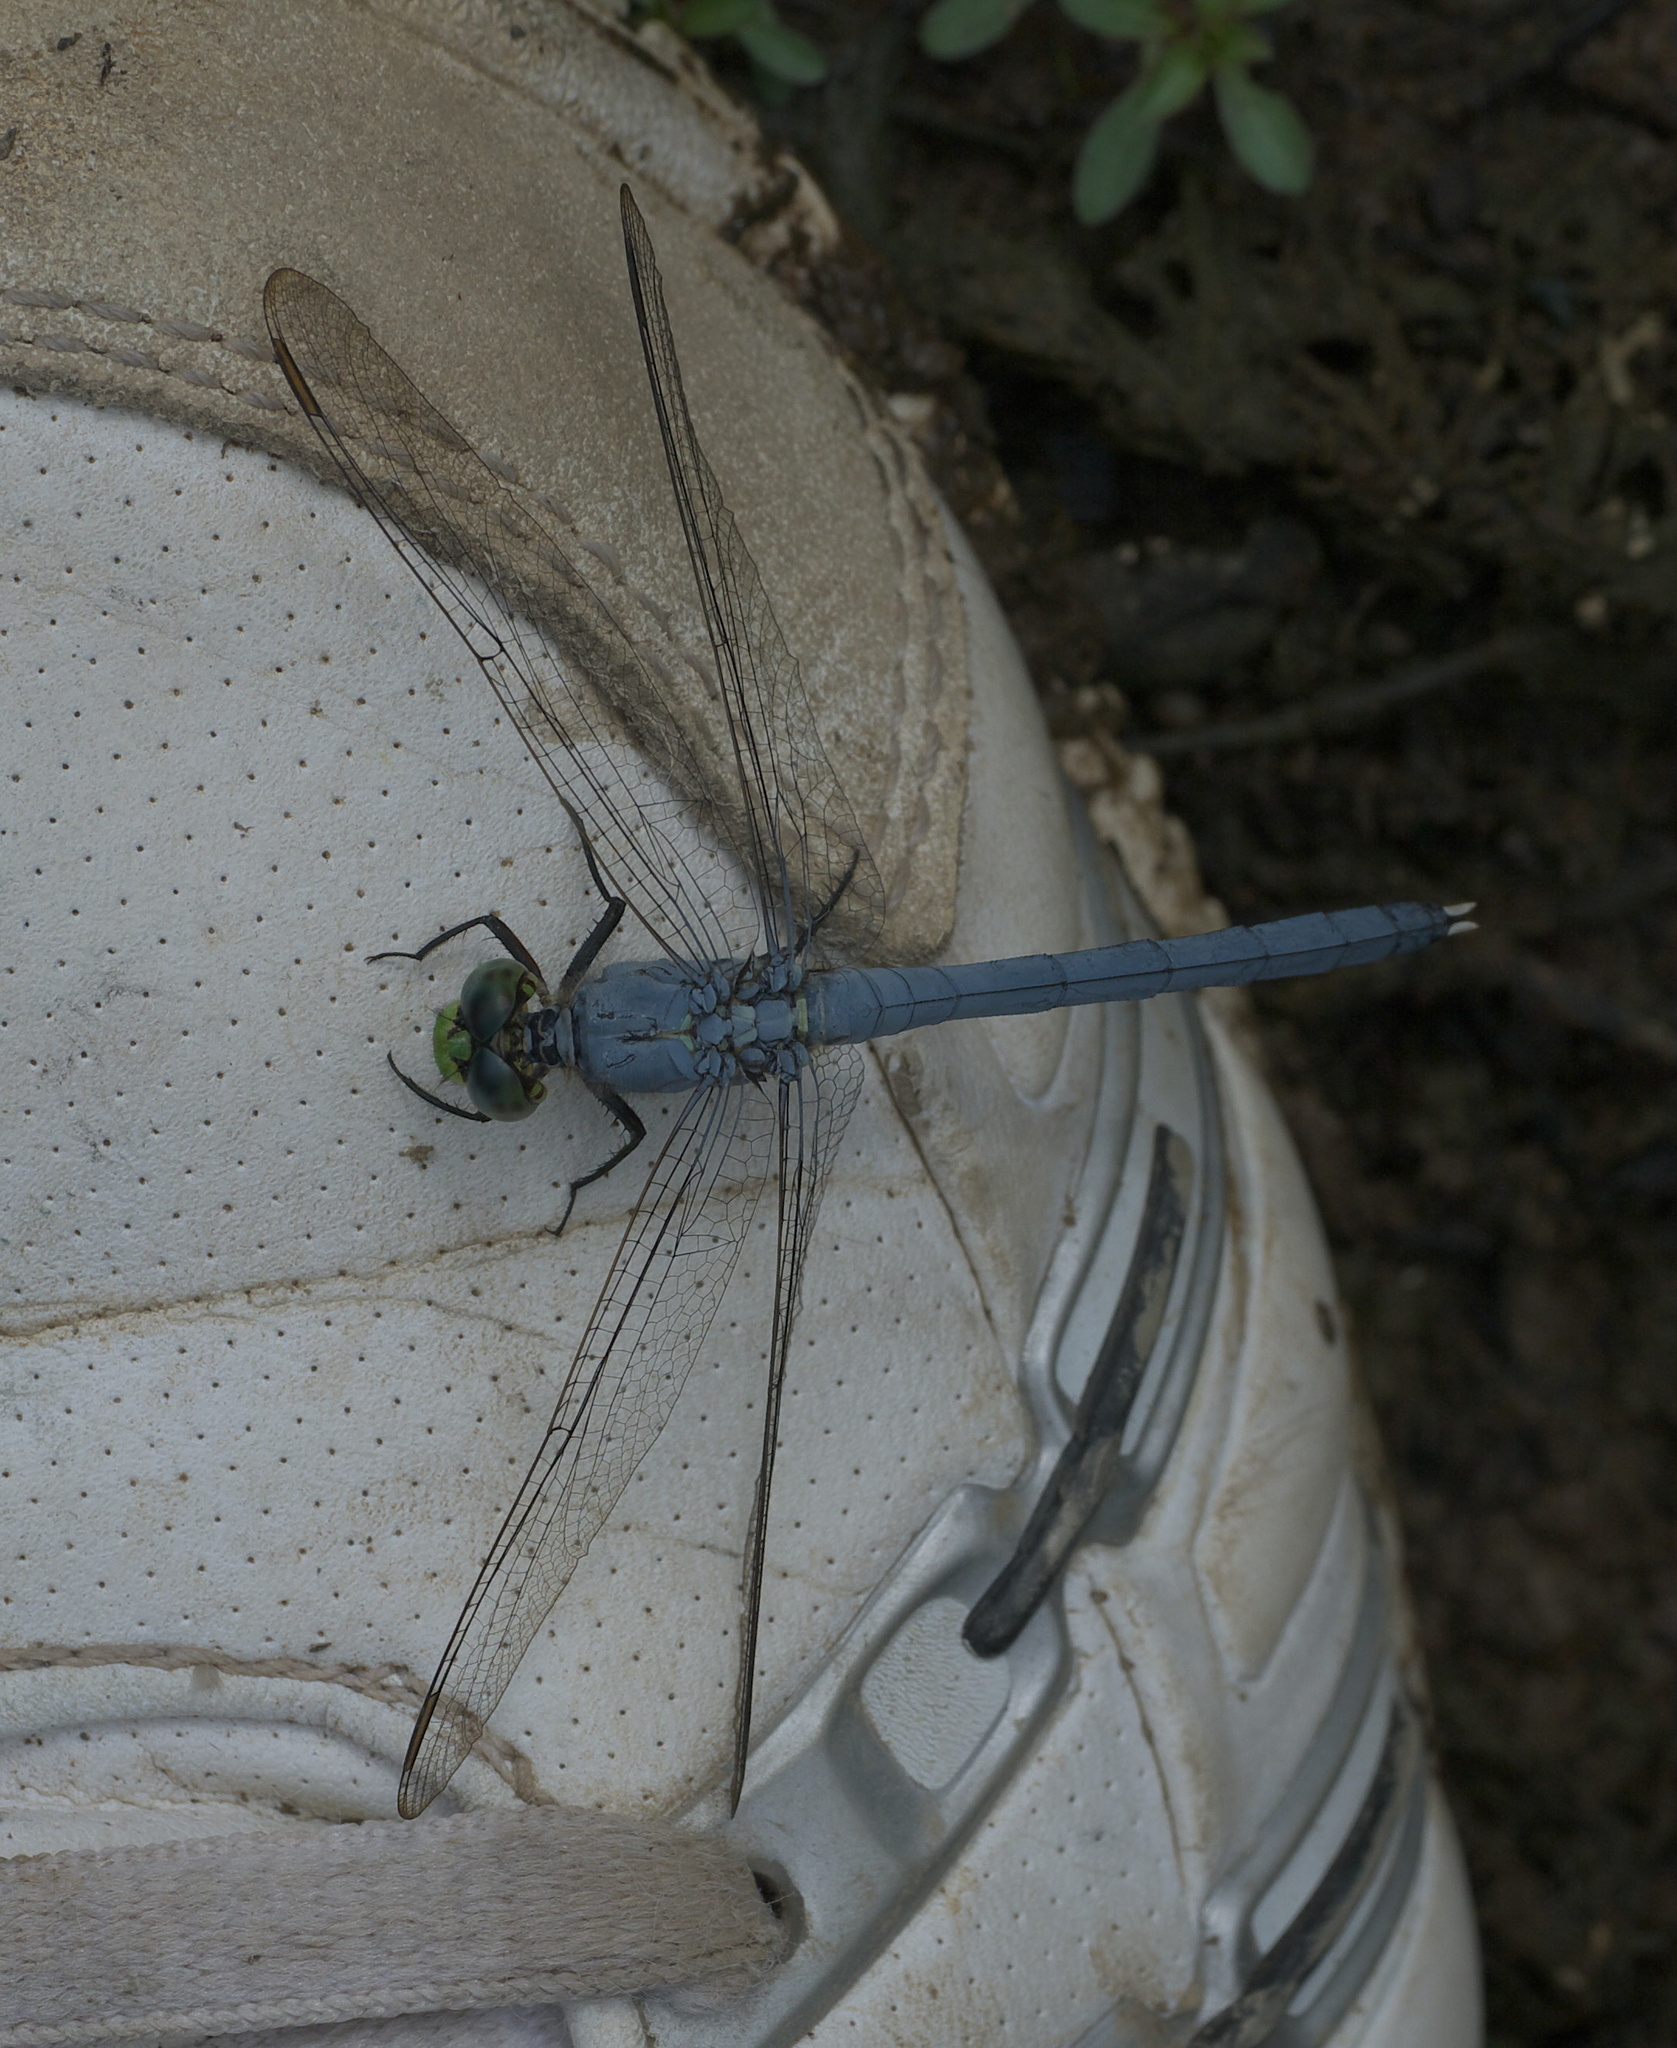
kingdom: Animalia
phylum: Arthropoda
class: Insecta
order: Odonata
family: Libellulidae
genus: Erythemis
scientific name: Erythemis simplicicollis
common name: Eastern pondhawk
